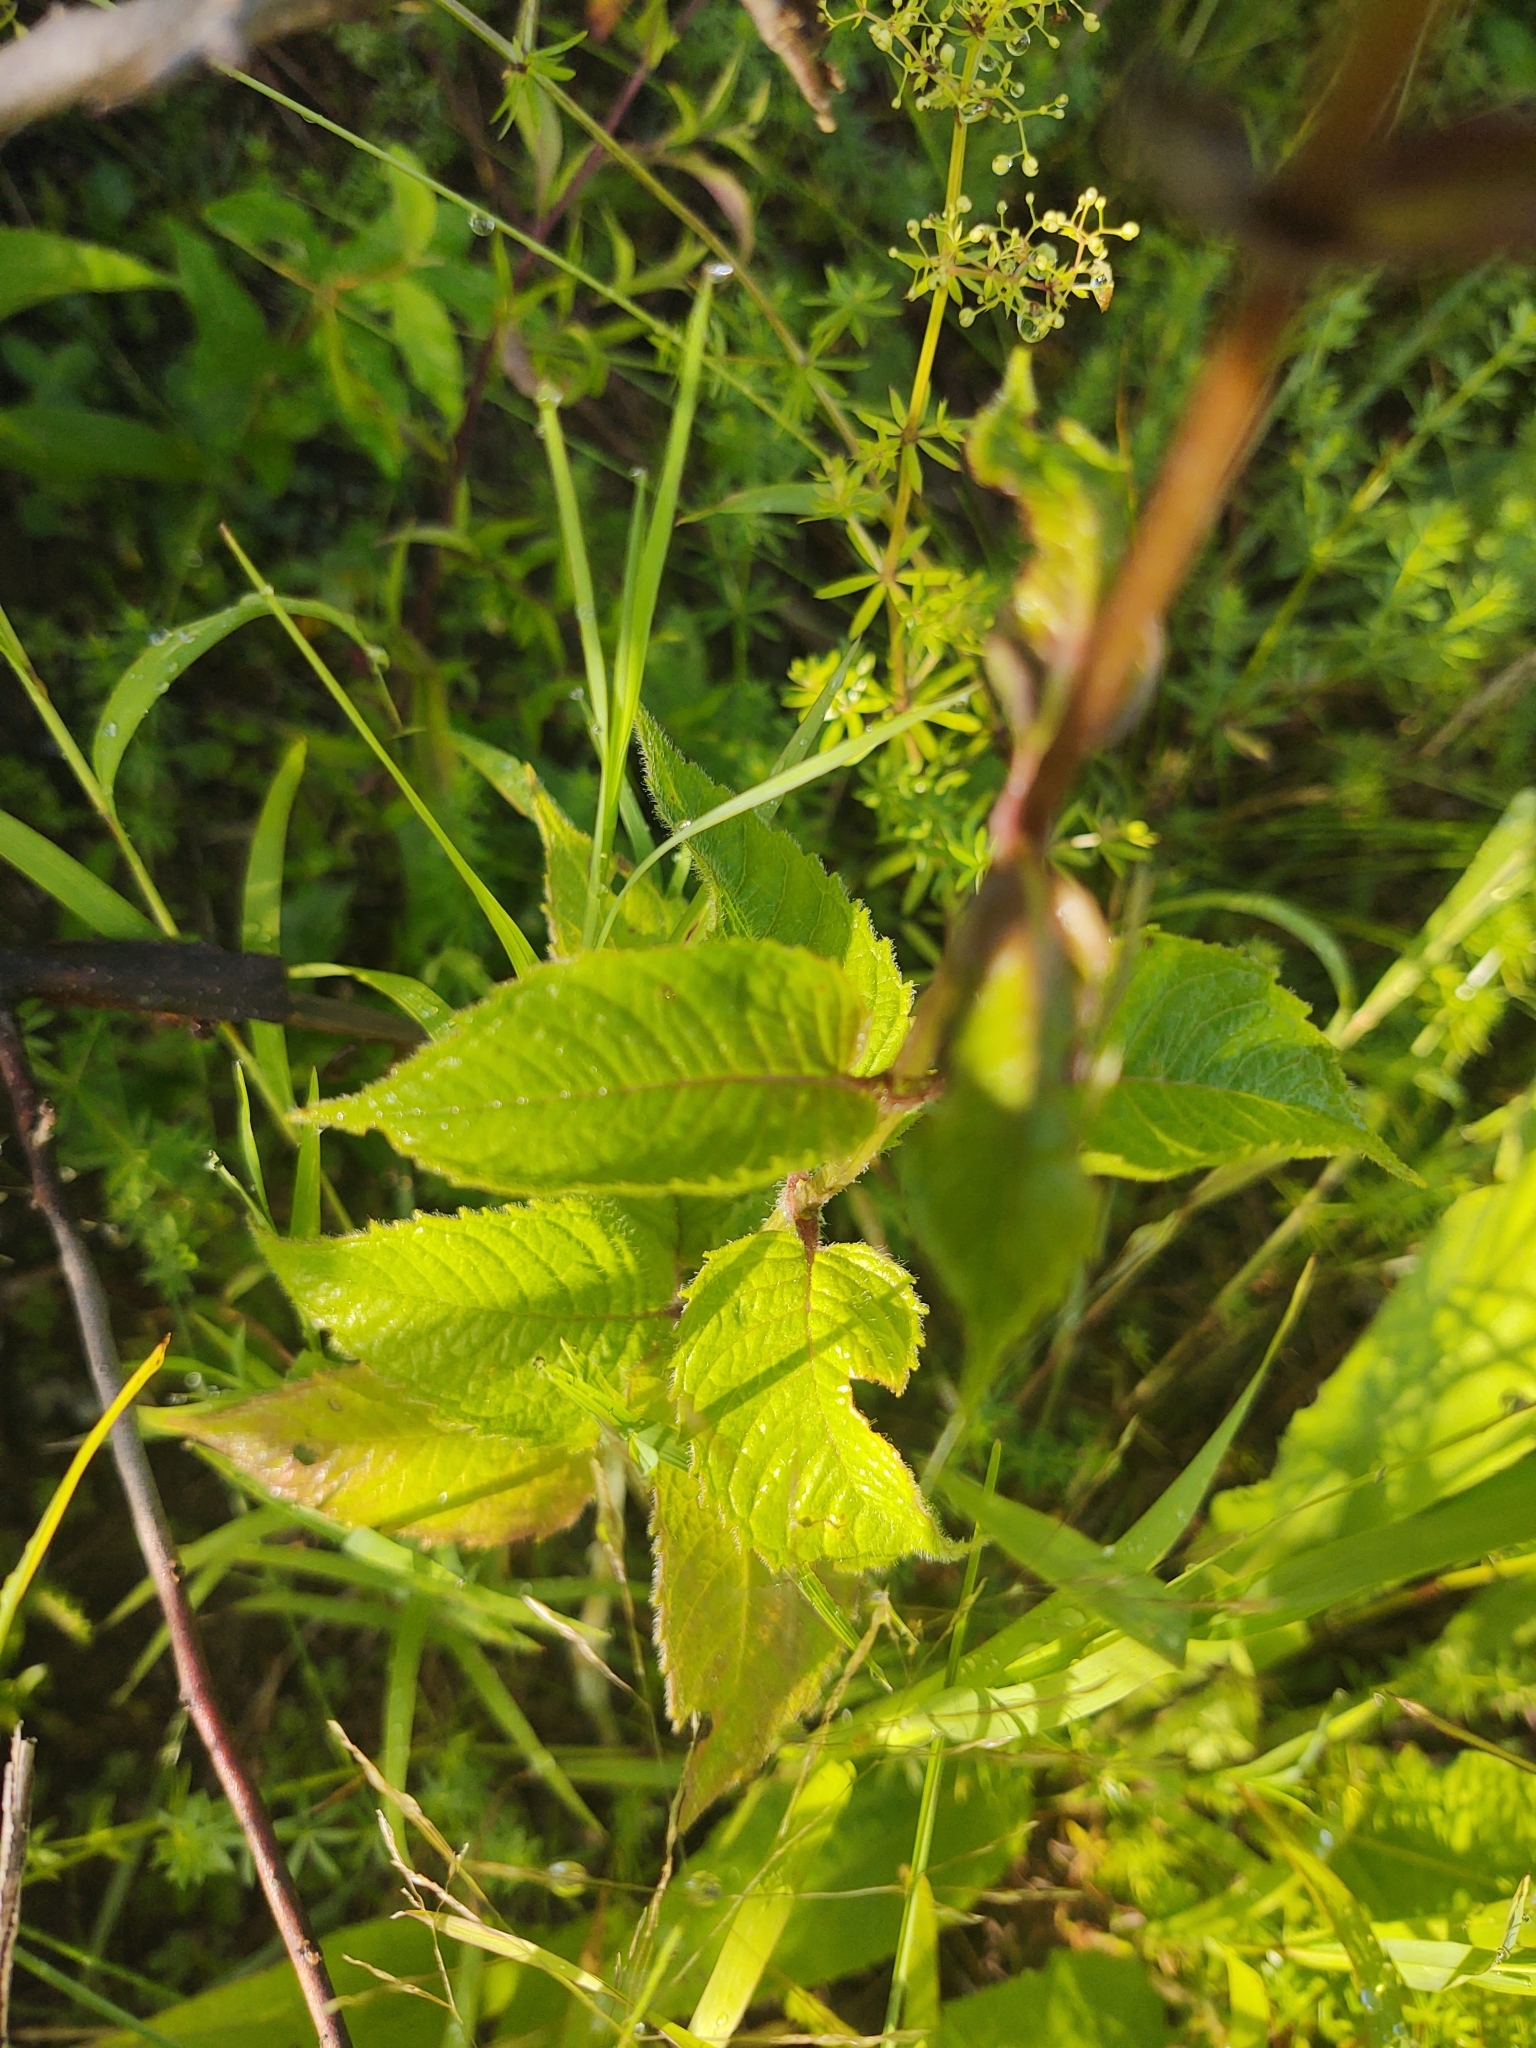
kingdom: Plantae
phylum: Tracheophyta
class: Magnoliopsida
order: Lamiales
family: Lamiaceae
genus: Monarda
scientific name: Monarda didyma
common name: Beebalm
